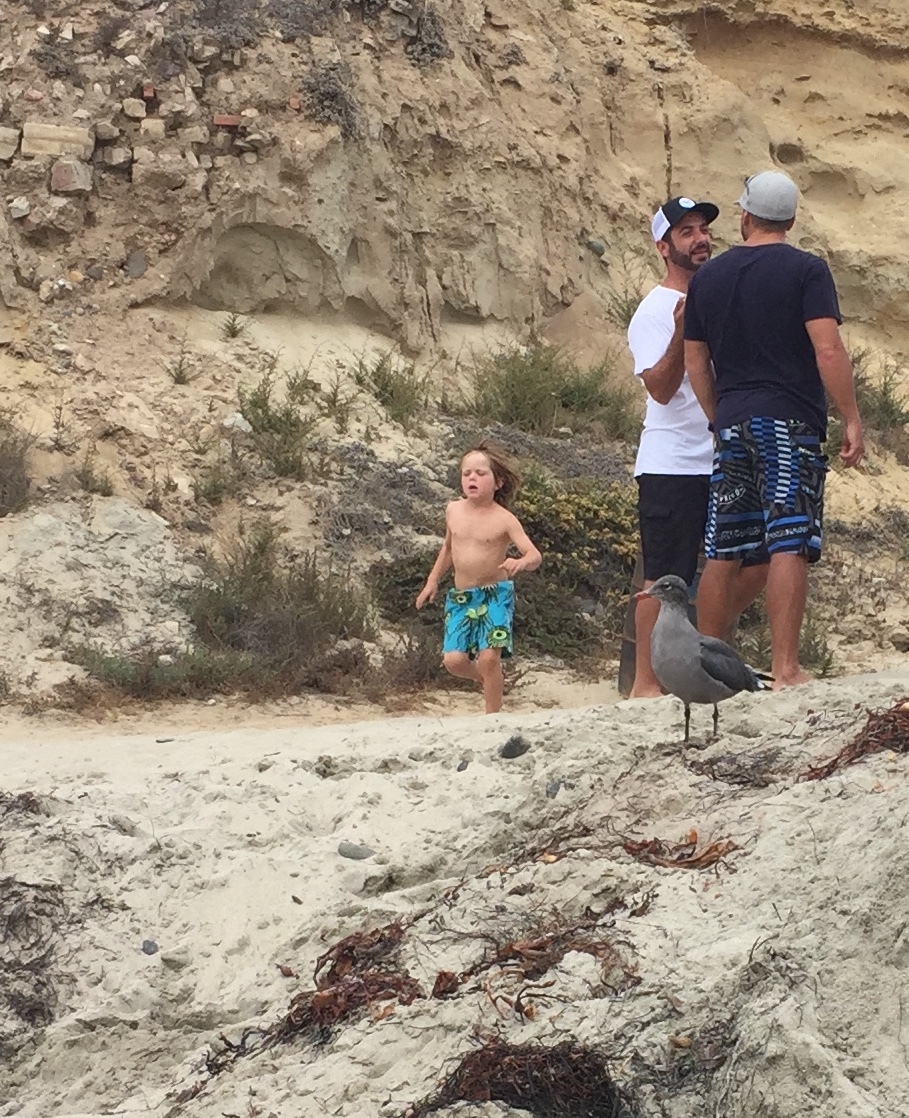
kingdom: Animalia
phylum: Chordata
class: Aves
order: Charadriiformes
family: Laridae
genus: Larus
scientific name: Larus heermanni
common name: Heermann's gull
